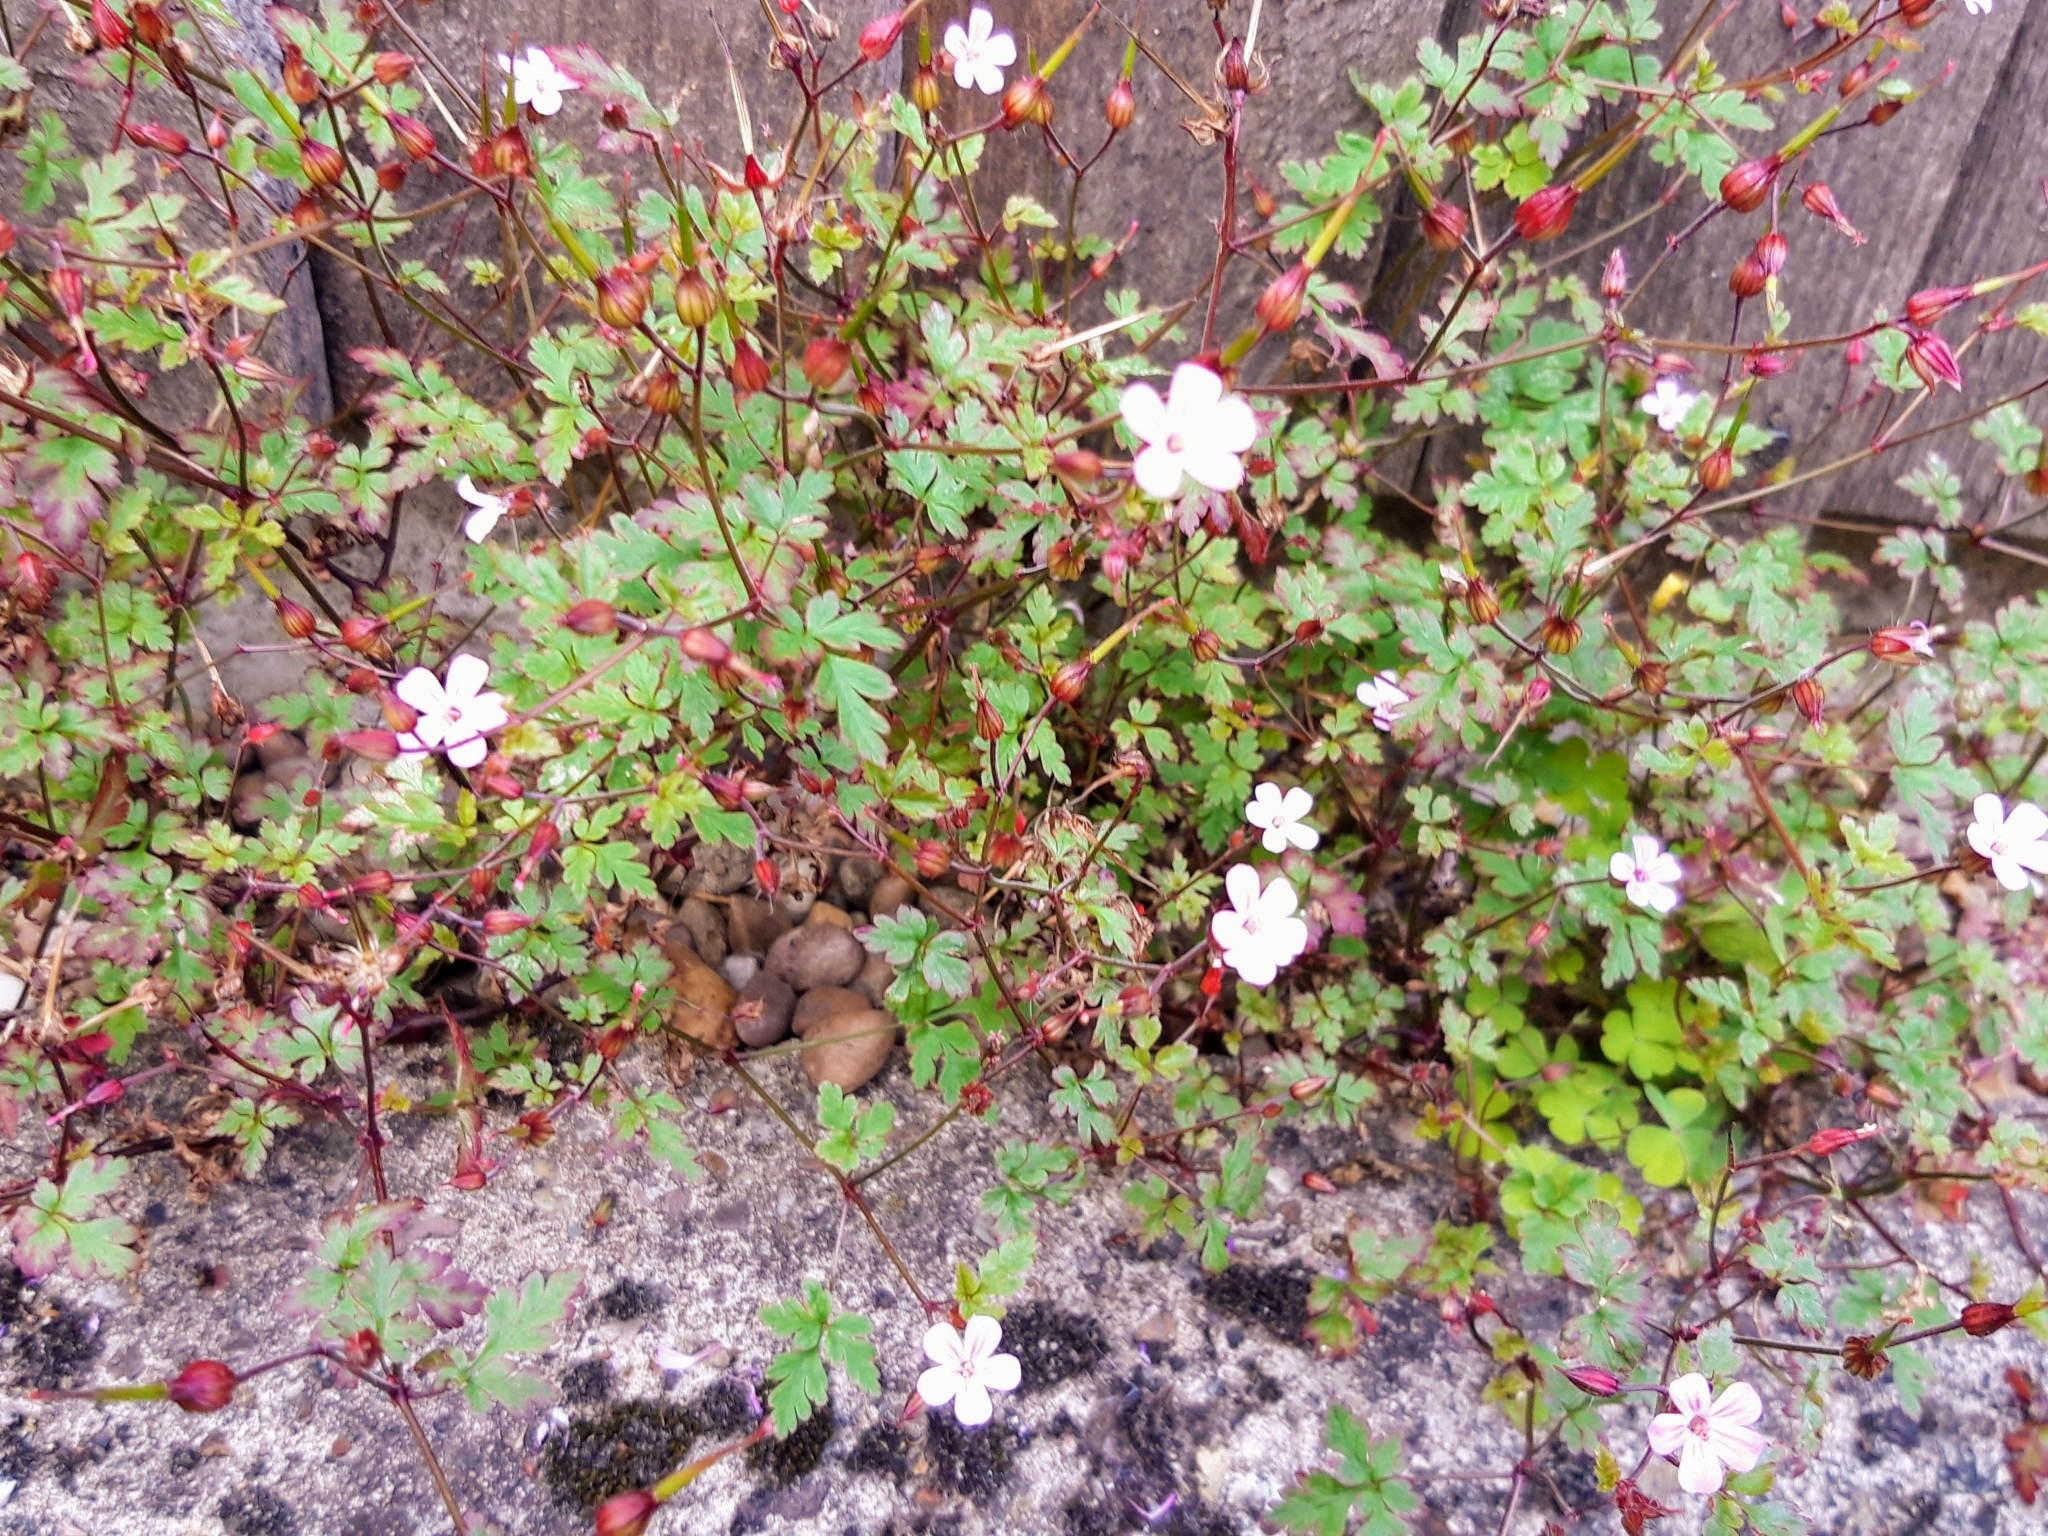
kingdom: Plantae
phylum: Tracheophyta
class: Magnoliopsida
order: Geraniales
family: Geraniaceae
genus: Geranium
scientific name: Geranium robertianum
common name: Herb-robert
